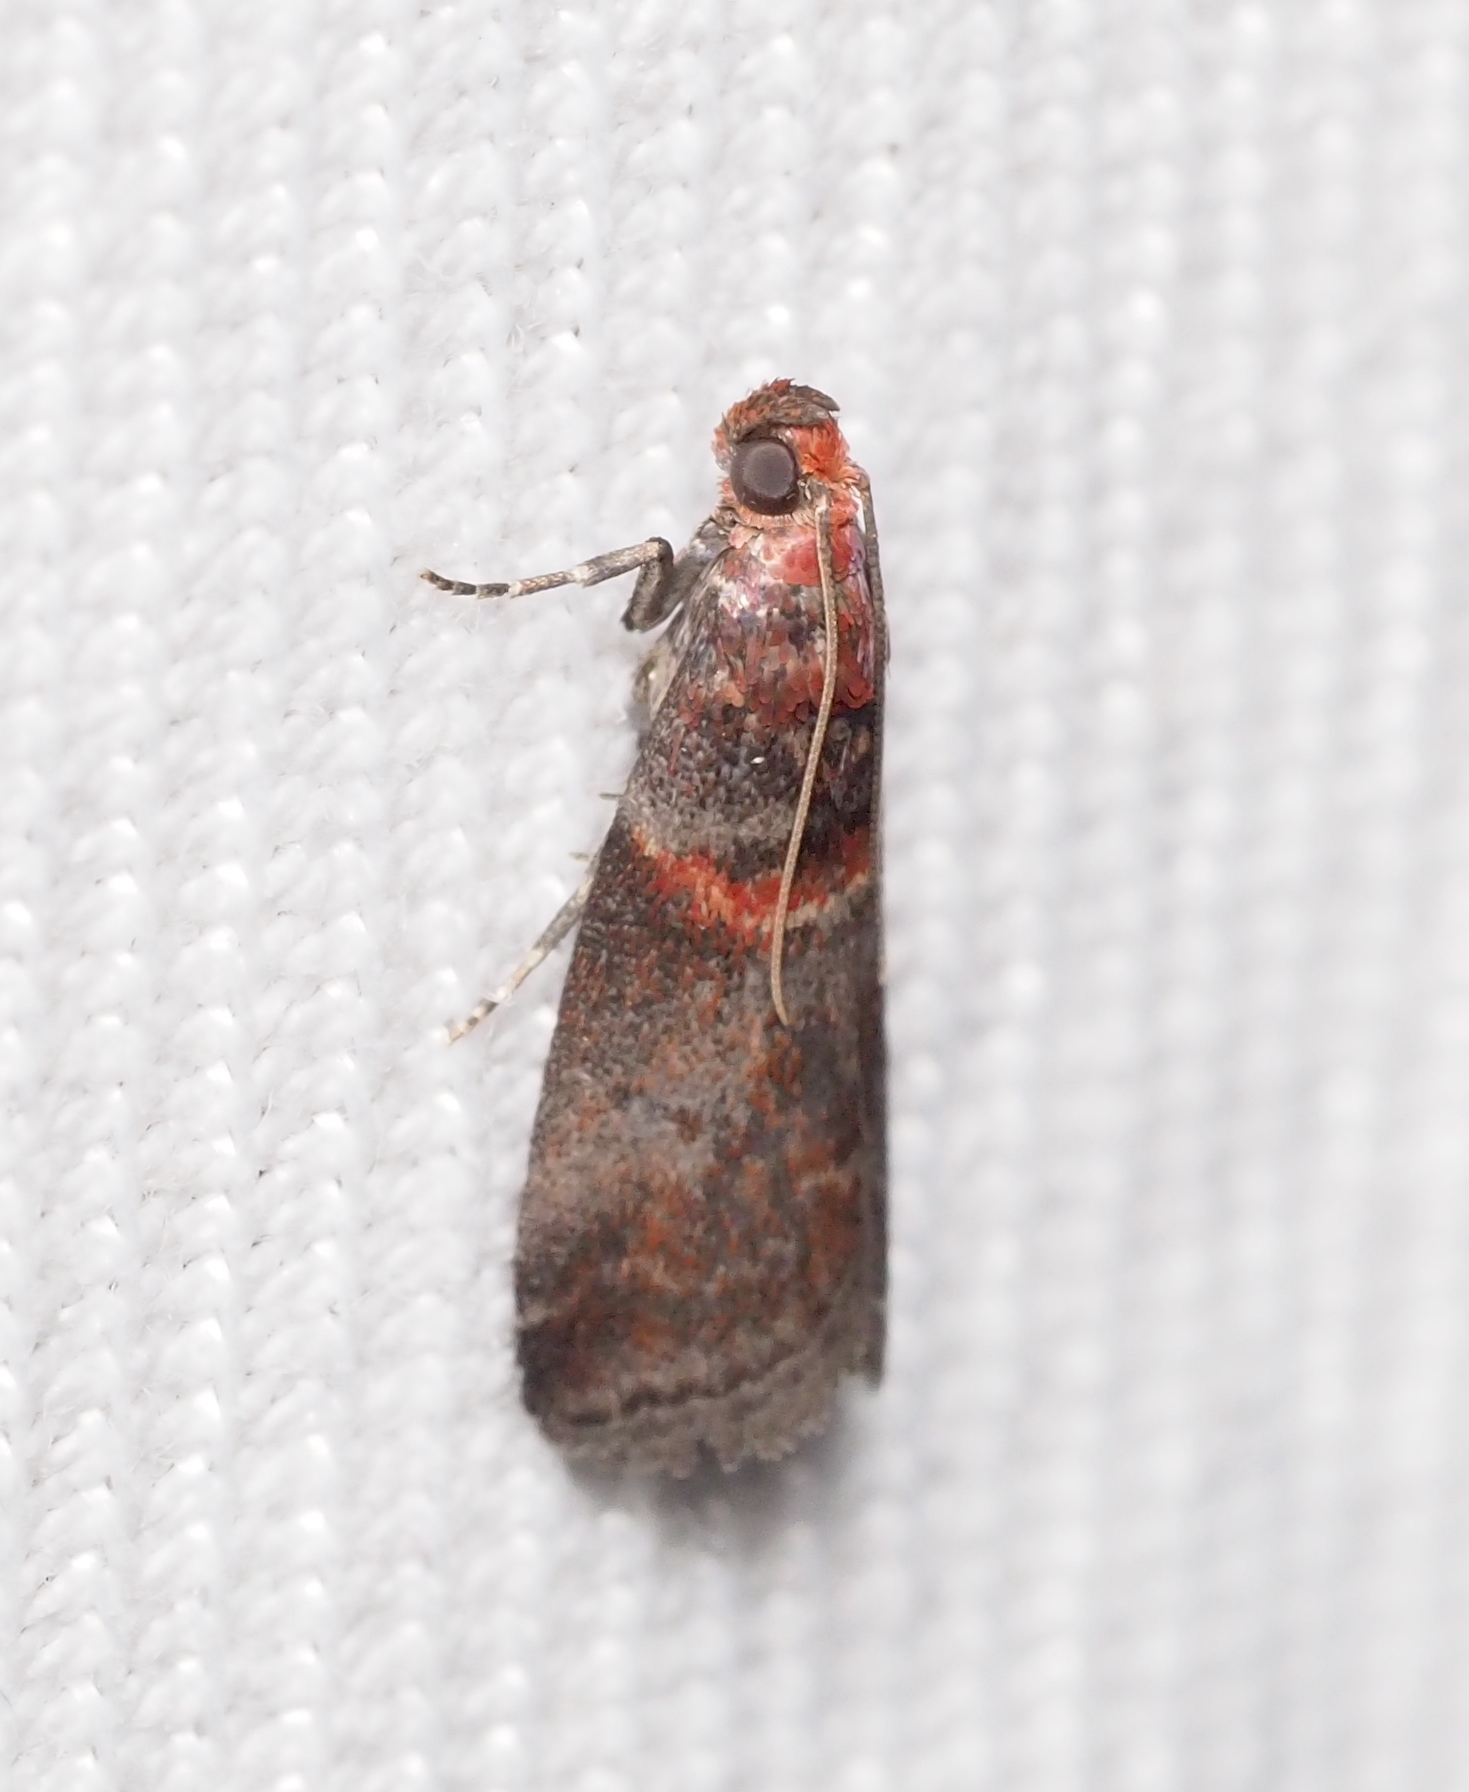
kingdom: Animalia
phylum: Arthropoda
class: Insecta
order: Lepidoptera
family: Pyralidae
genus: Acrobasis
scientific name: Acrobasis advenella
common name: Grey knot-horn
